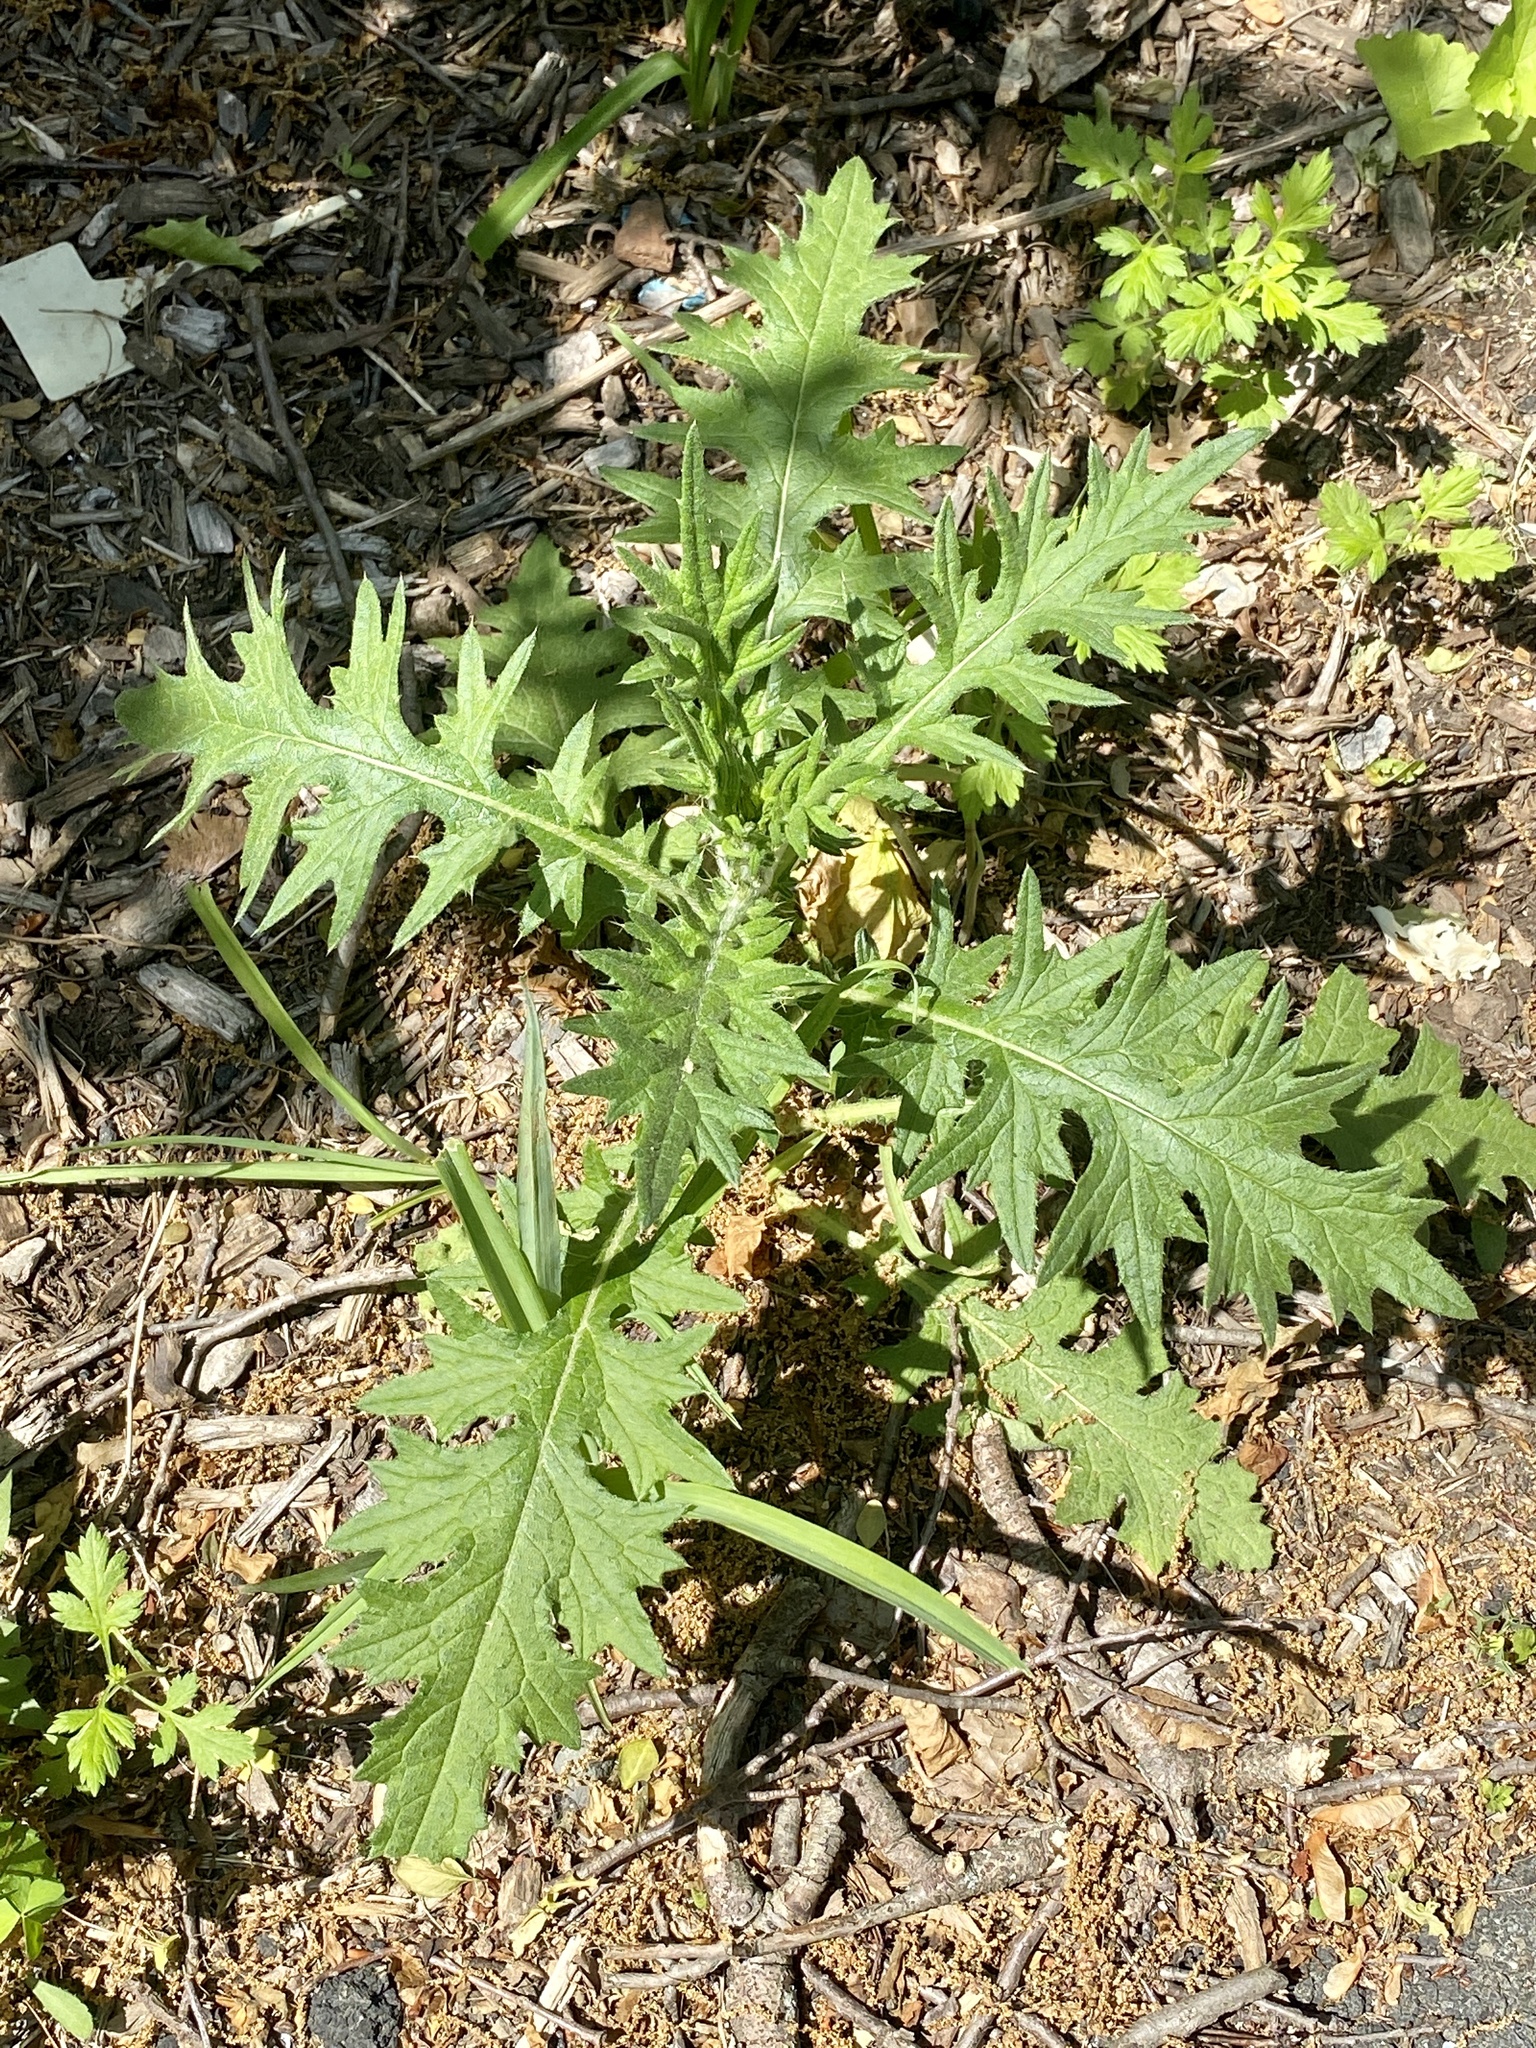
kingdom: Plantae
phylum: Tracheophyta
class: Magnoliopsida
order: Asterales
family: Asteraceae
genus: Cirsium
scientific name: Cirsium vulgare
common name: Bull thistle
